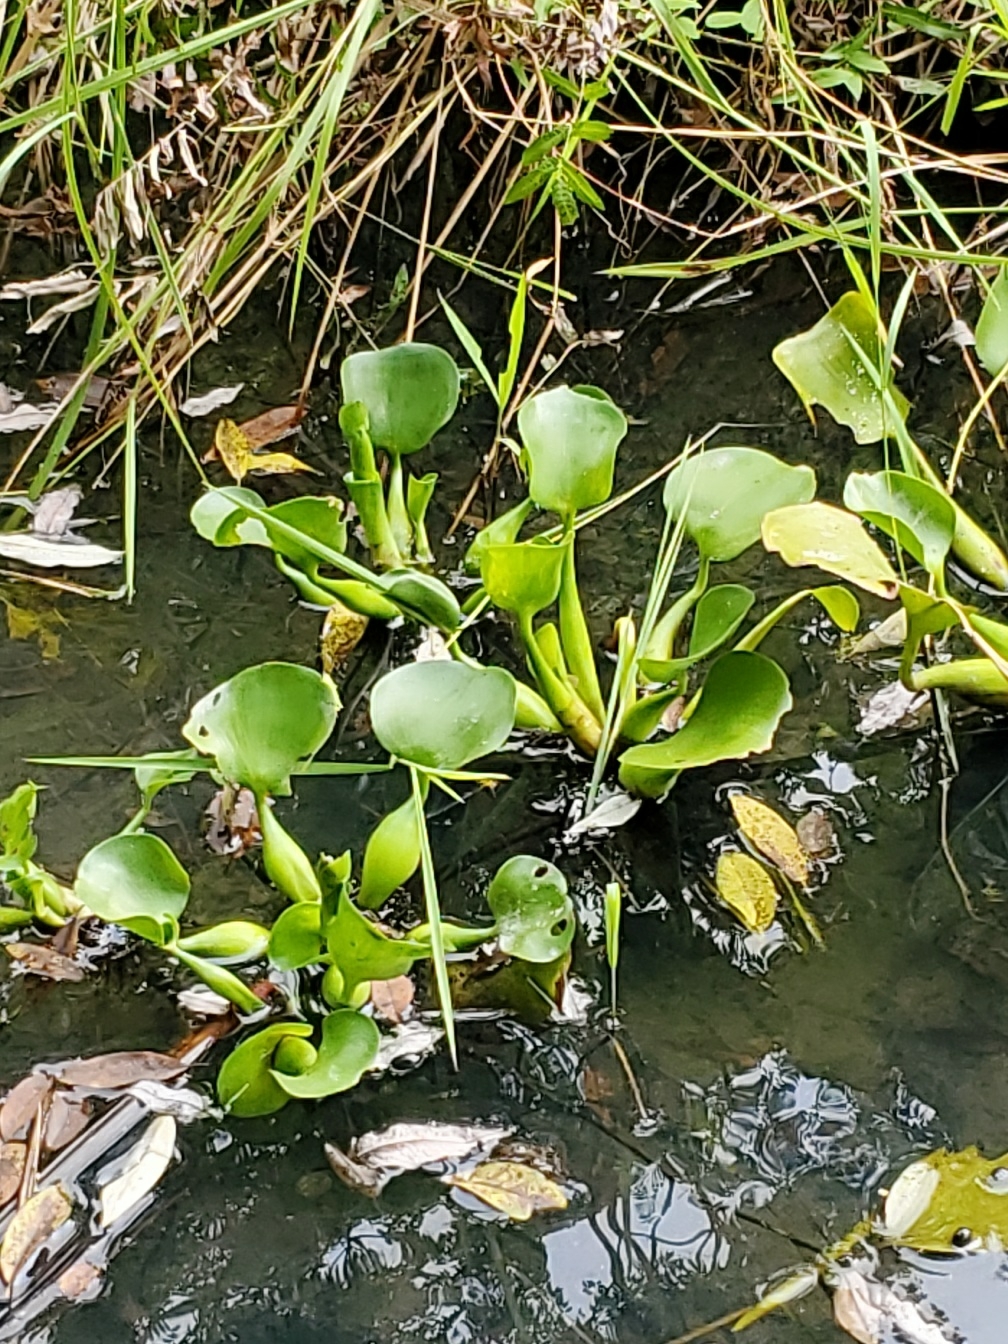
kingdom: Plantae
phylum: Tracheophyta
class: Liliopsida
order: Commelinales
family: Pontederiaceae
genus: Pontederia
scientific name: Pontederia crassipes
